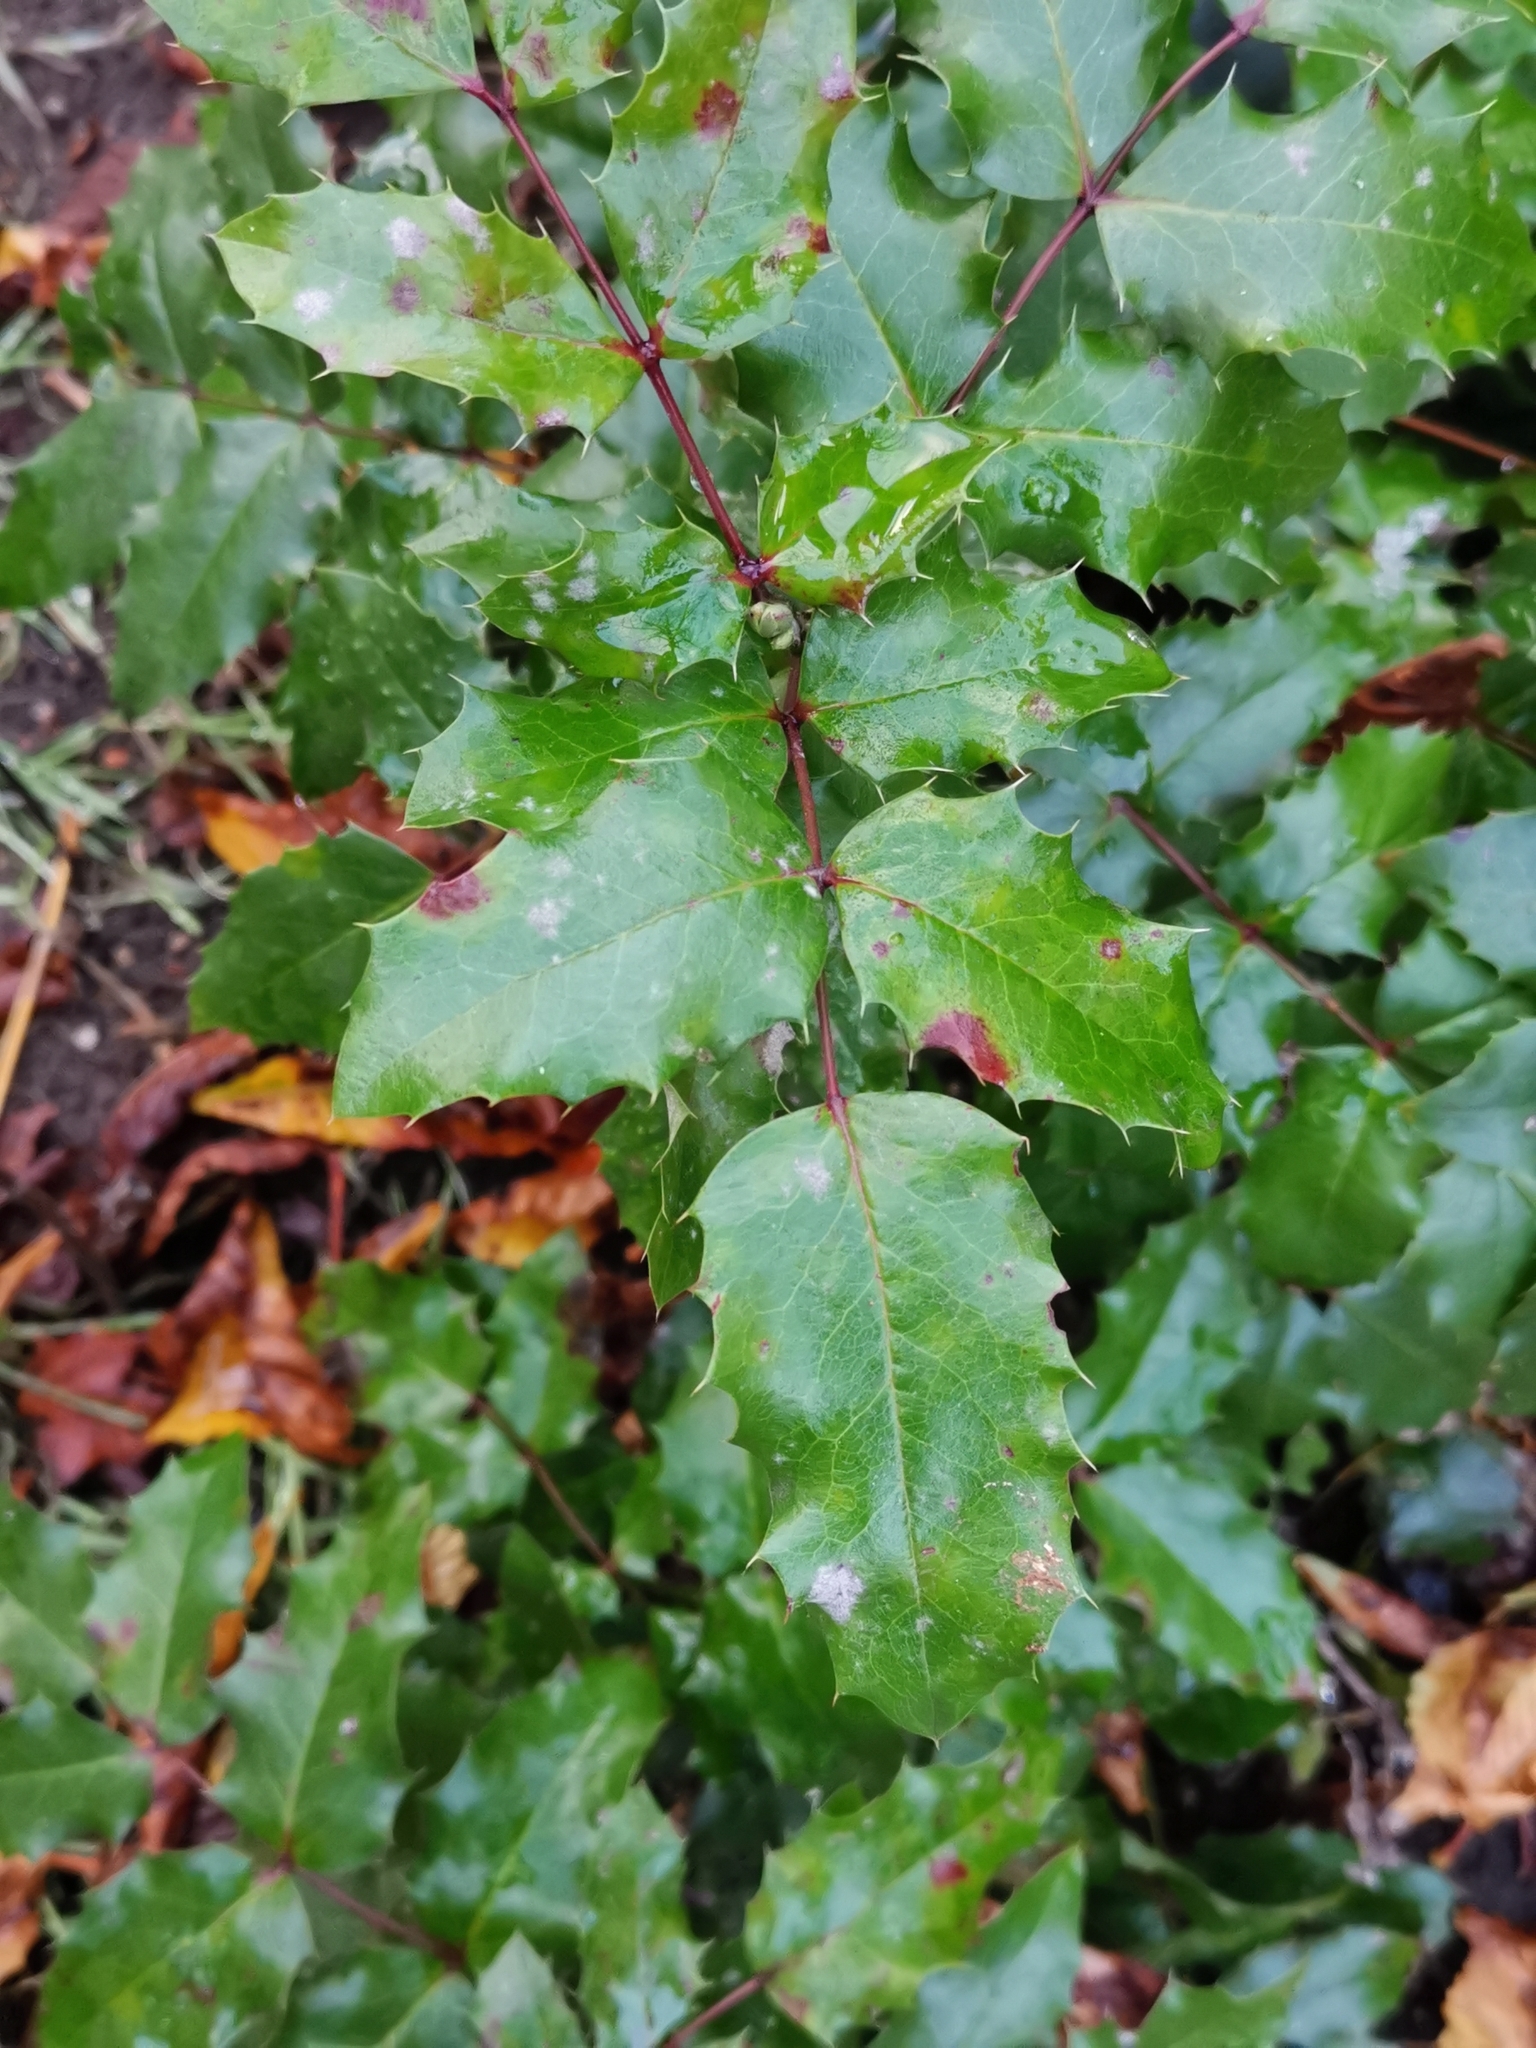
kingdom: Plantae
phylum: Tracheophyta
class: Magnoliopsida
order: Ranunculales
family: Berberidaceae
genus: Mahonia
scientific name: Mahonia aquifolium
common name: Oregon-grape
